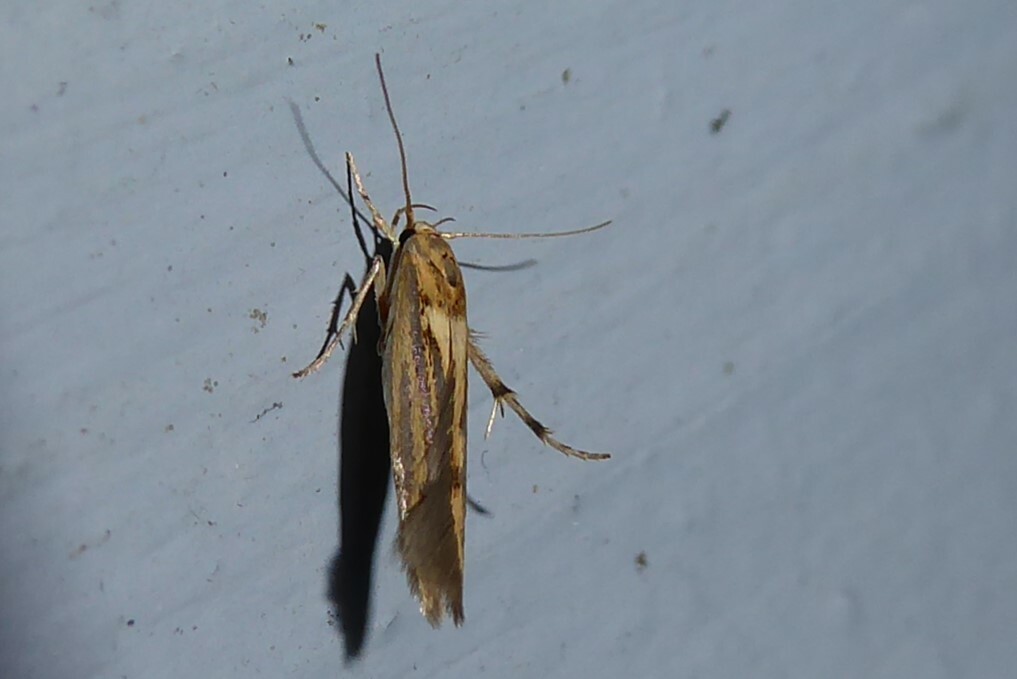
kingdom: Animalia
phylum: Arthropoda
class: Insecta
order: Lepidoptera
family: Stathmopodidae
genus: Stathmopoda
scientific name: Stathmopoda plumbiflua
